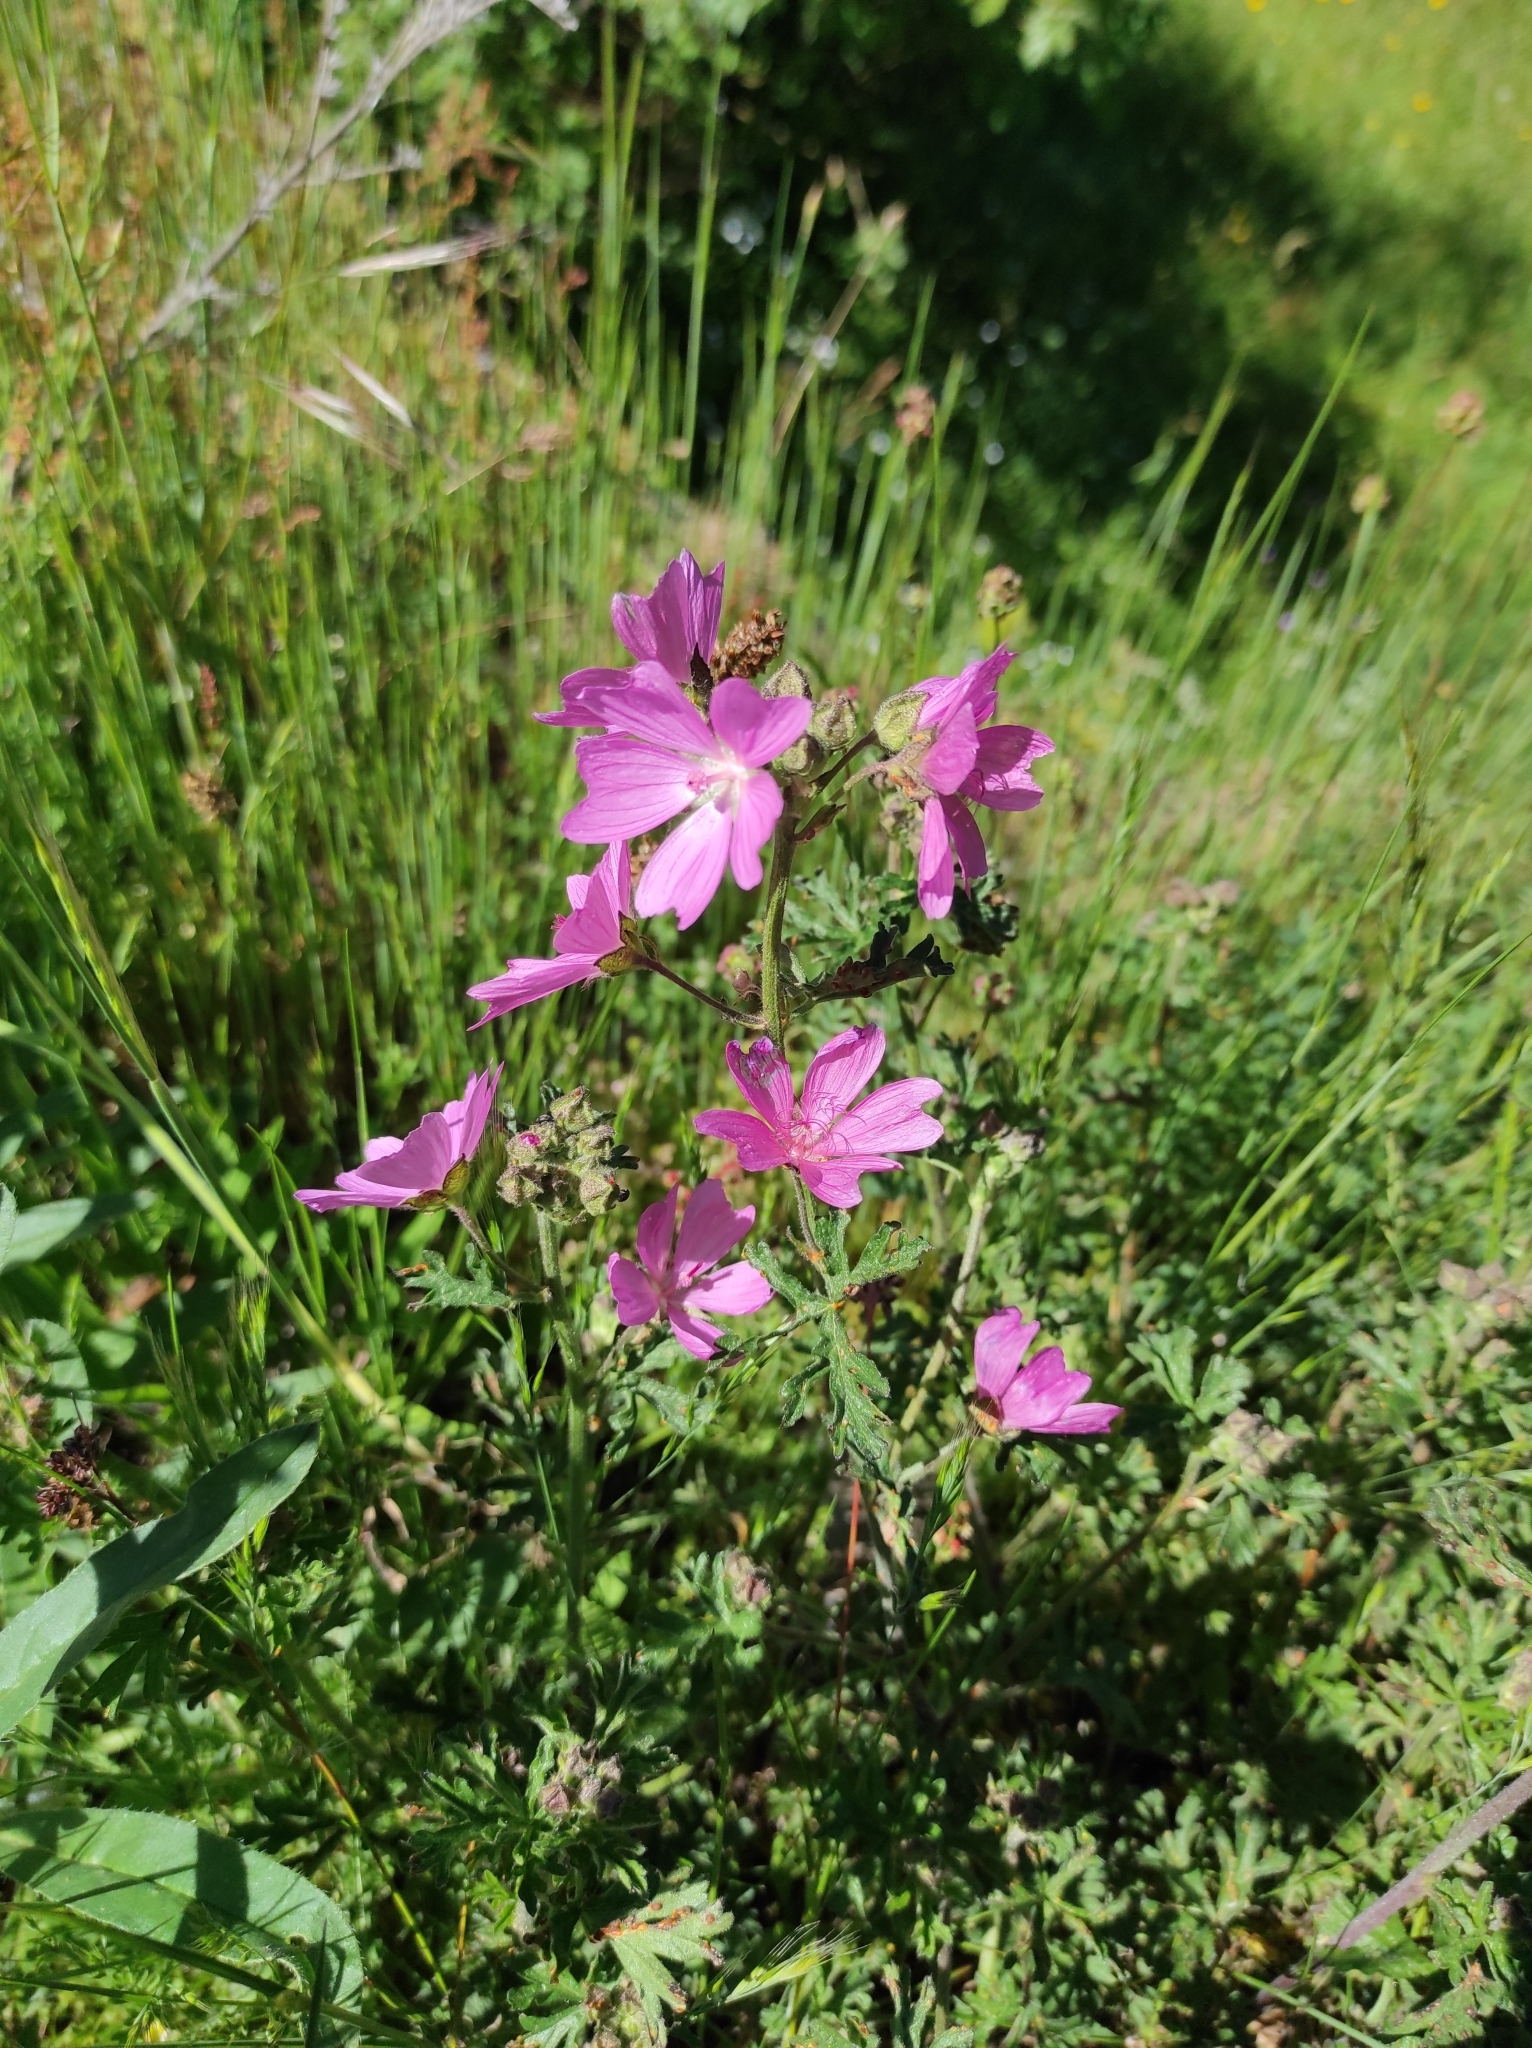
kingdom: Plantae
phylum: Tracheophyta
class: Magnoliopsida
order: Malvales
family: Malvaceae
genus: Malva
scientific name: Malva moschata
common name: Musk mallow
